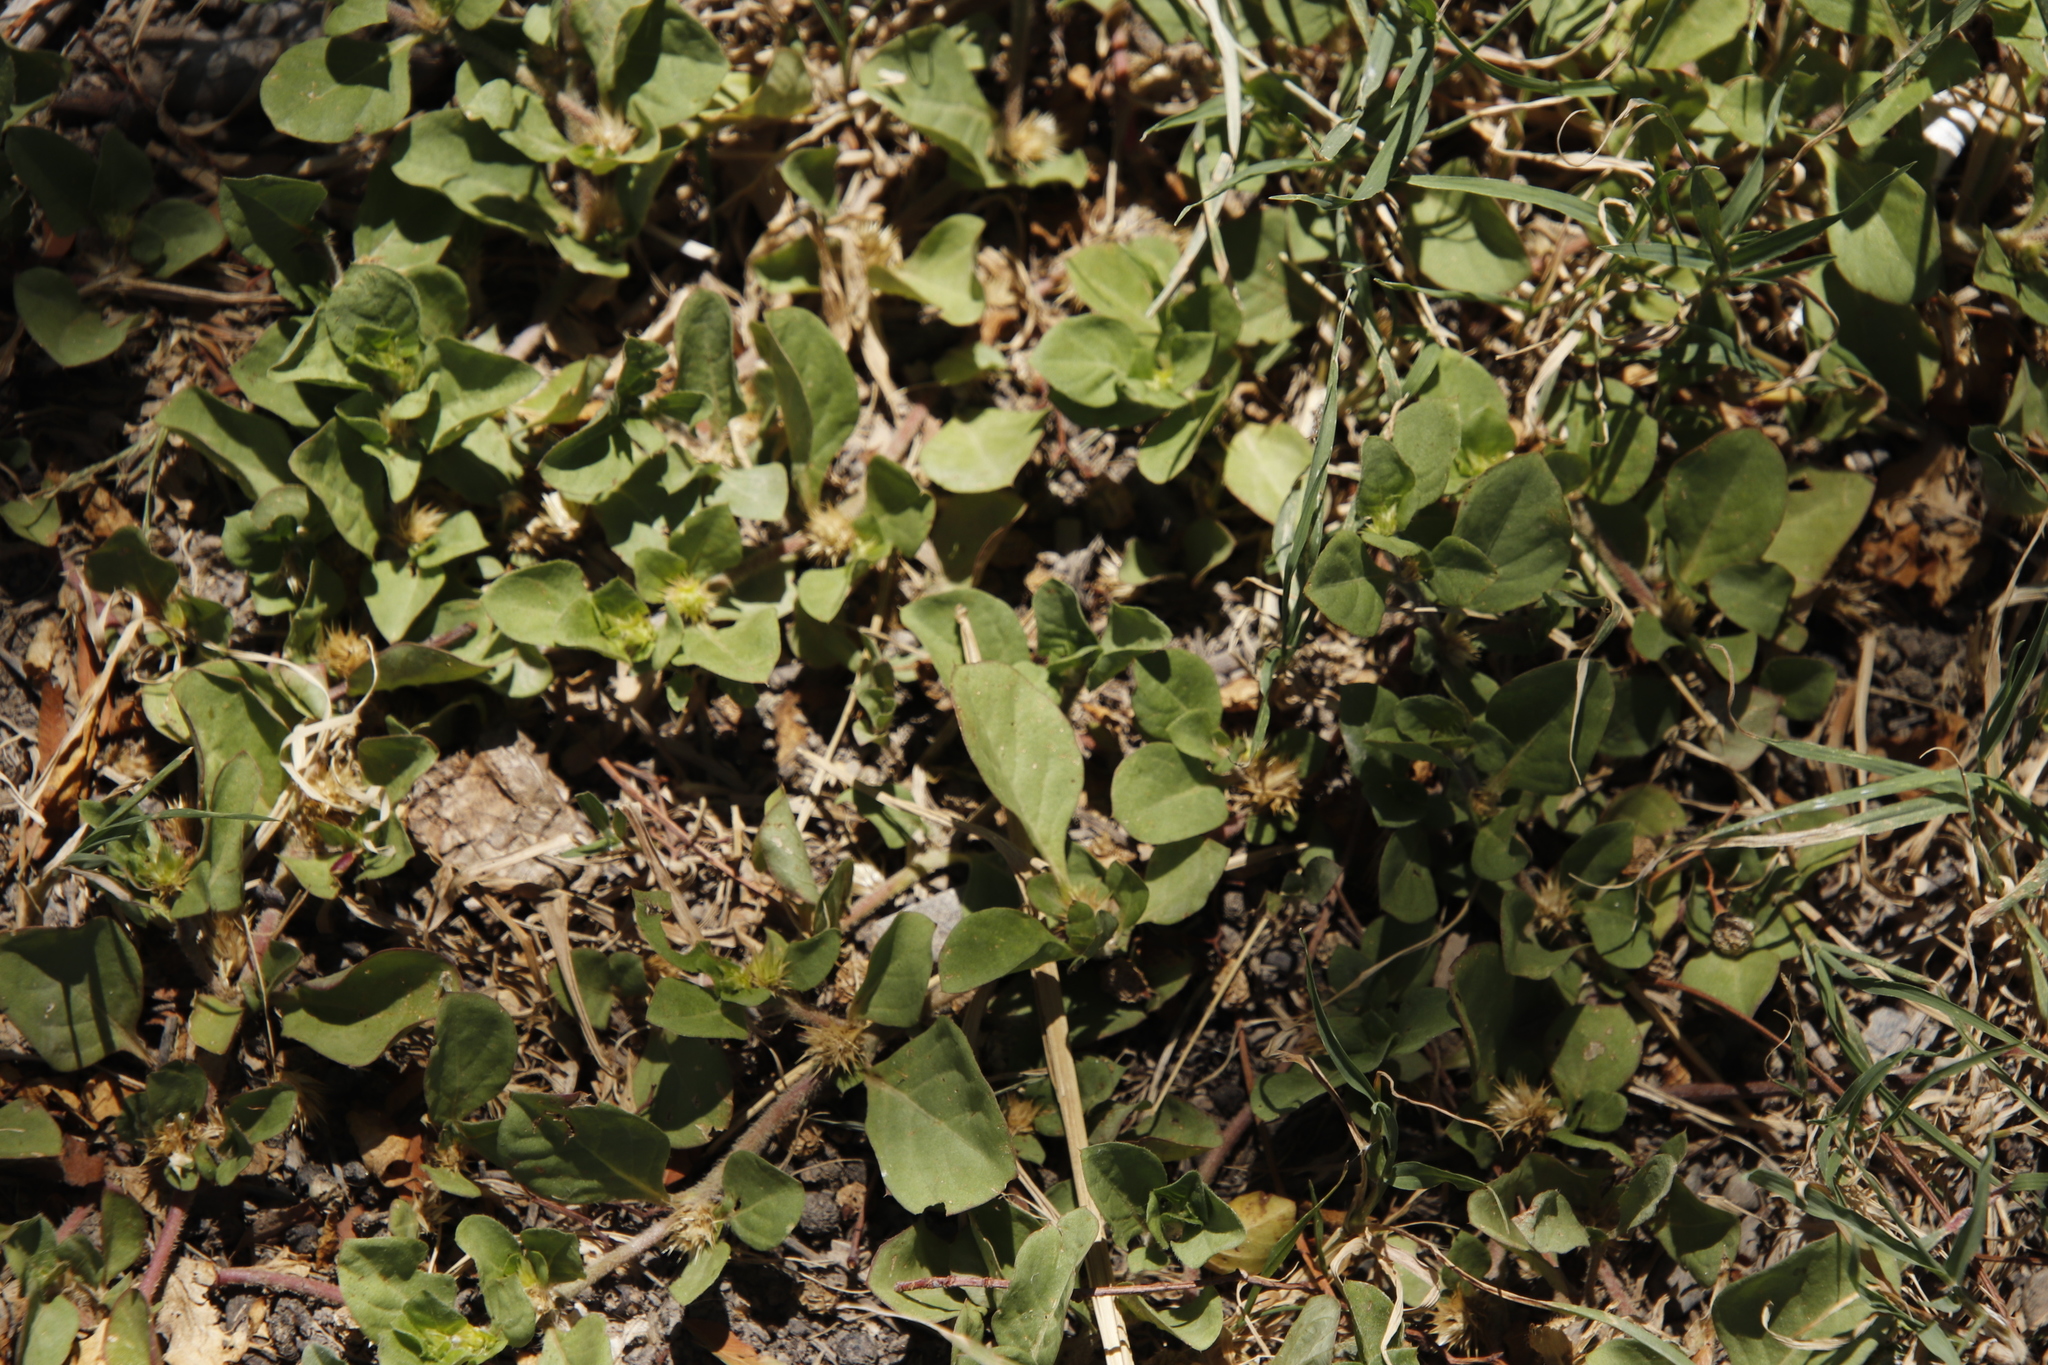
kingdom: Plantae
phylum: Tracheophyta
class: Magnoliopsida
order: Caryophyllales
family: Amaranthaceae
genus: Alternanthera
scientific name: Alternanthera pungens
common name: Khakiweed
